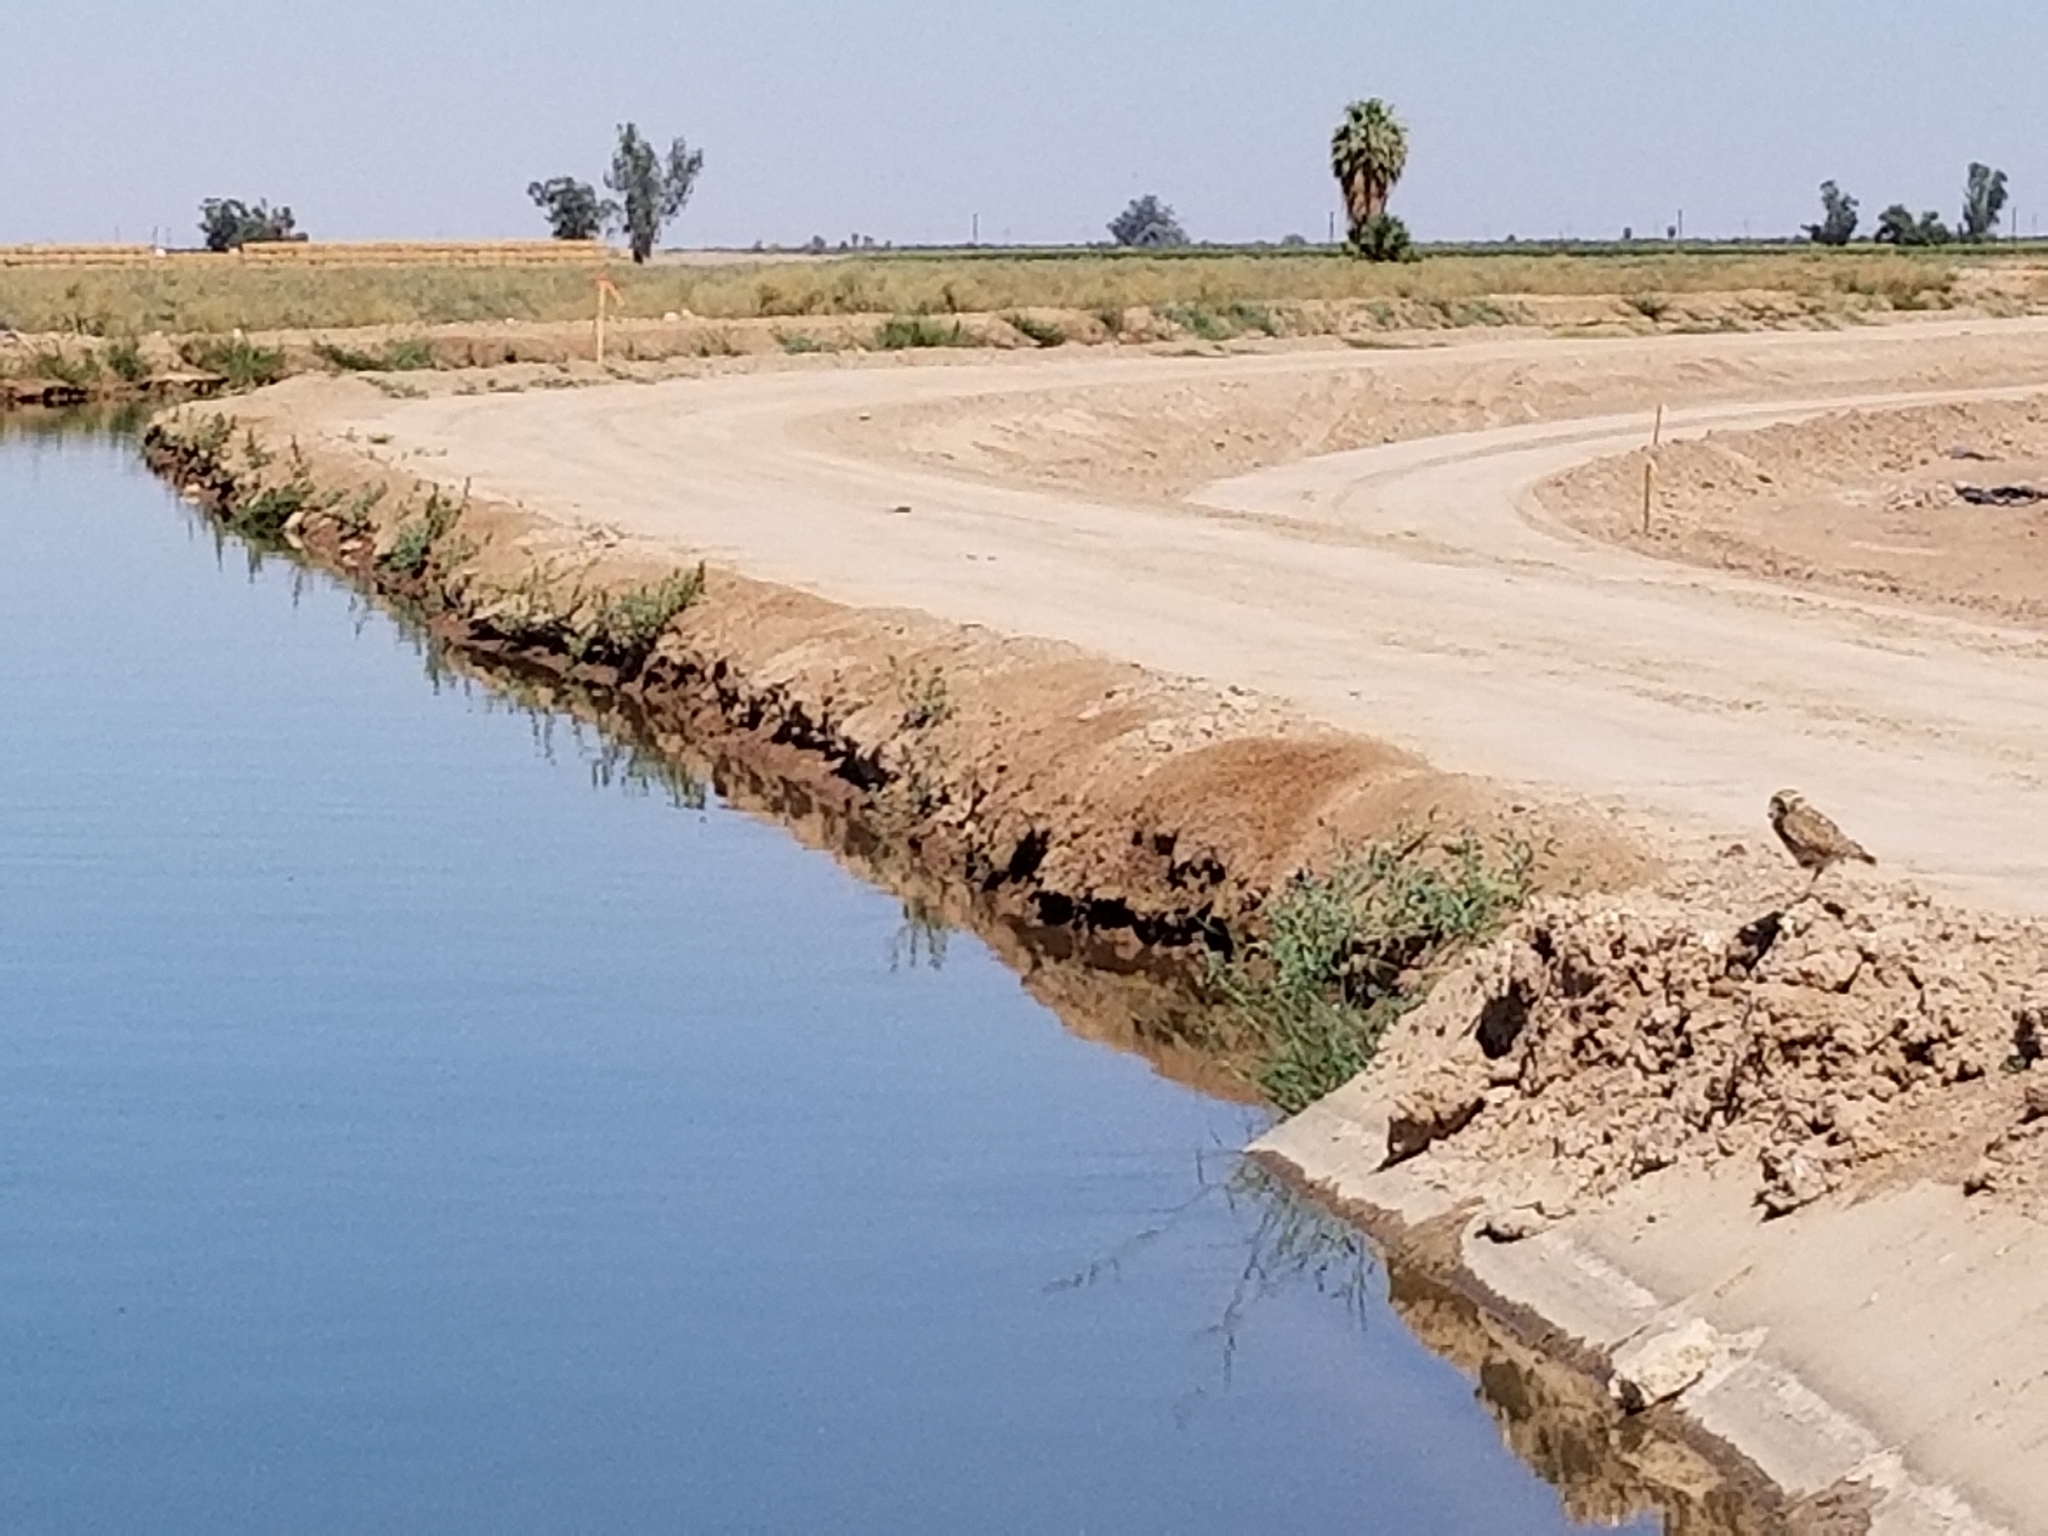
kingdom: Animalia
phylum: Chordata
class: Aves
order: Strigiformes
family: Strigidae
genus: Athene
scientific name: Athene cunicularia
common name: Burrowing owl
